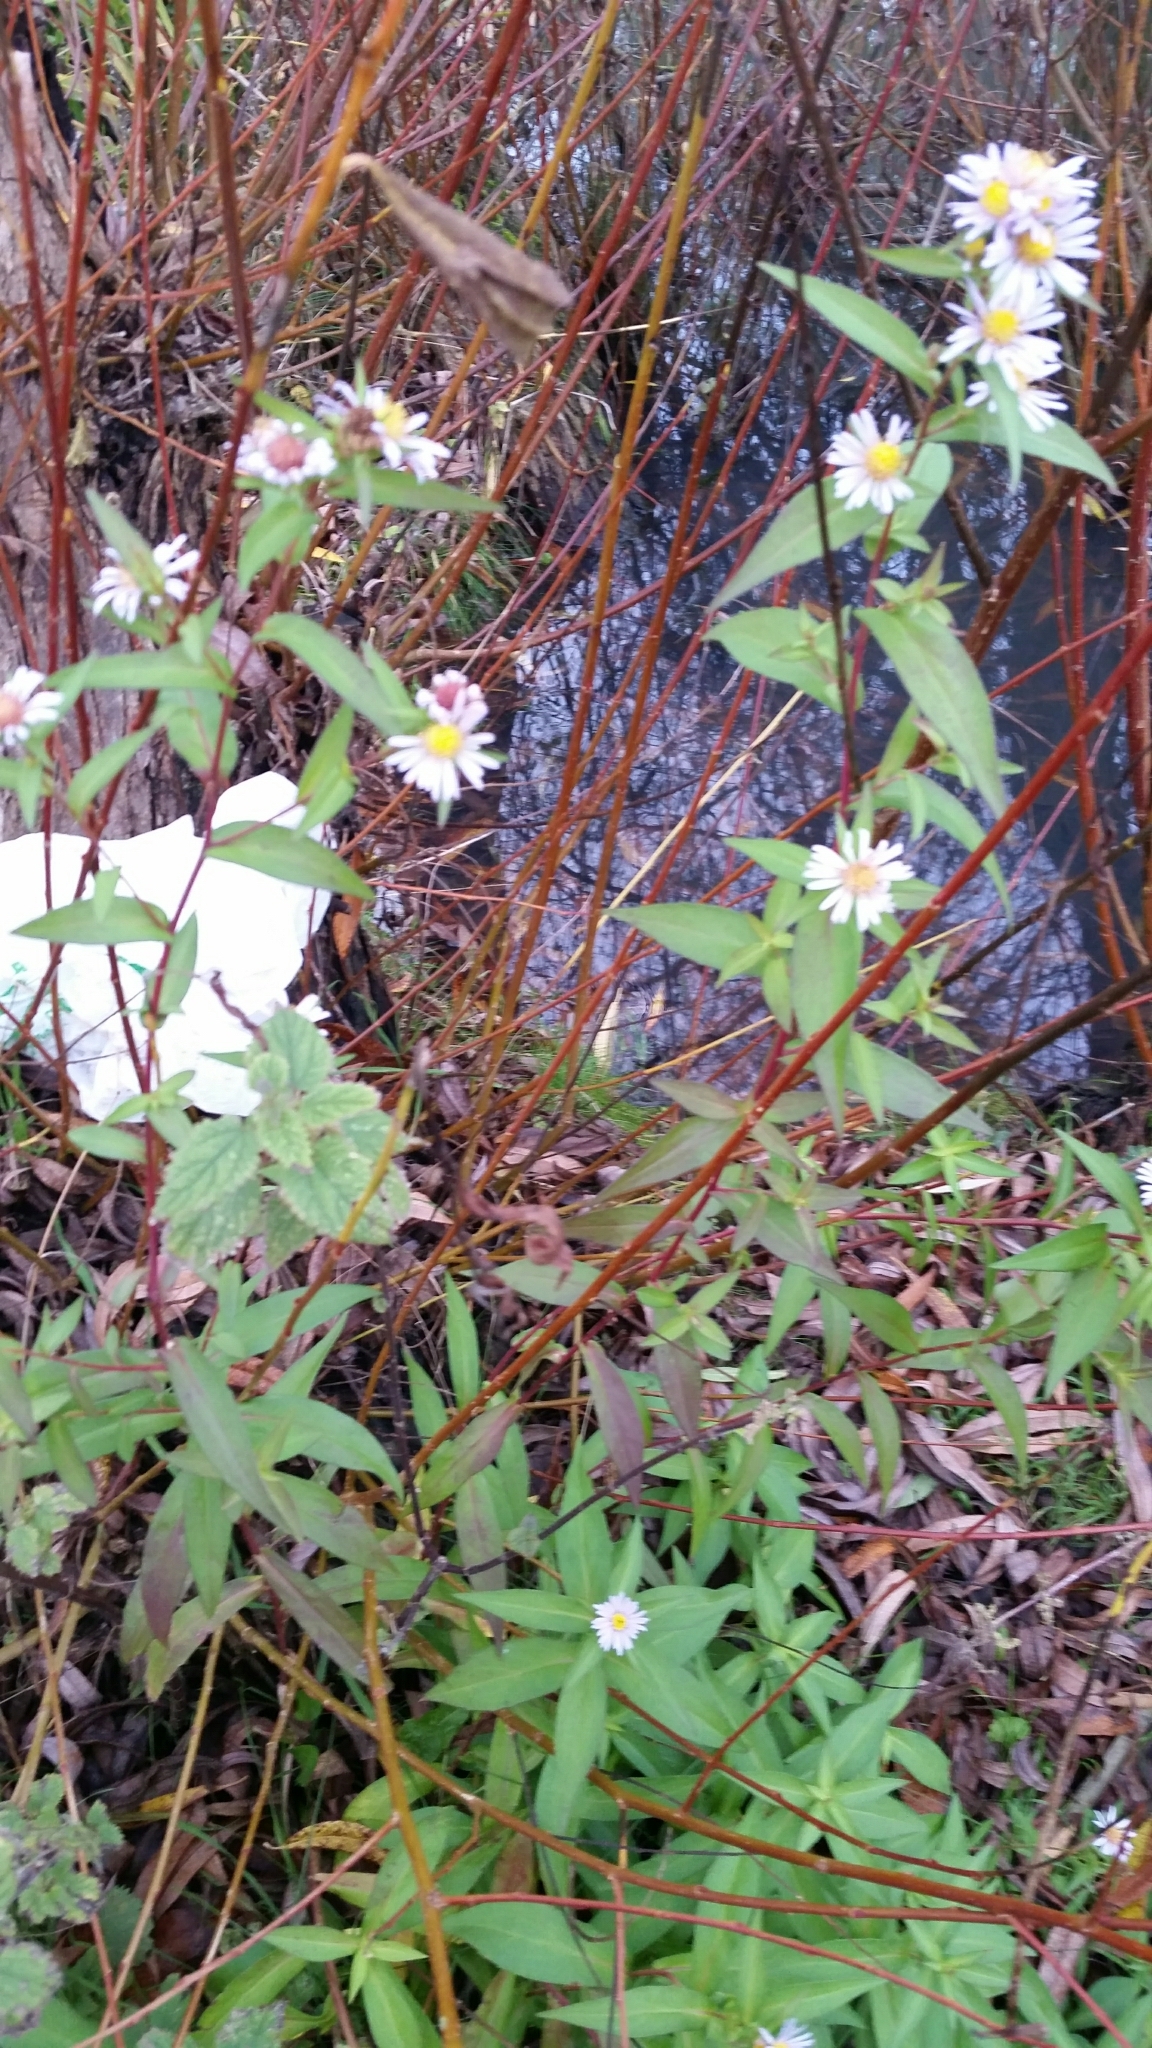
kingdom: Plantae
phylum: Tracheophyta
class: Magnoliopsida
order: Asterales
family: Asteraceae
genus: Symphyotrichum
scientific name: Symphyotrichum lanceolatum
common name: Panicled aster
